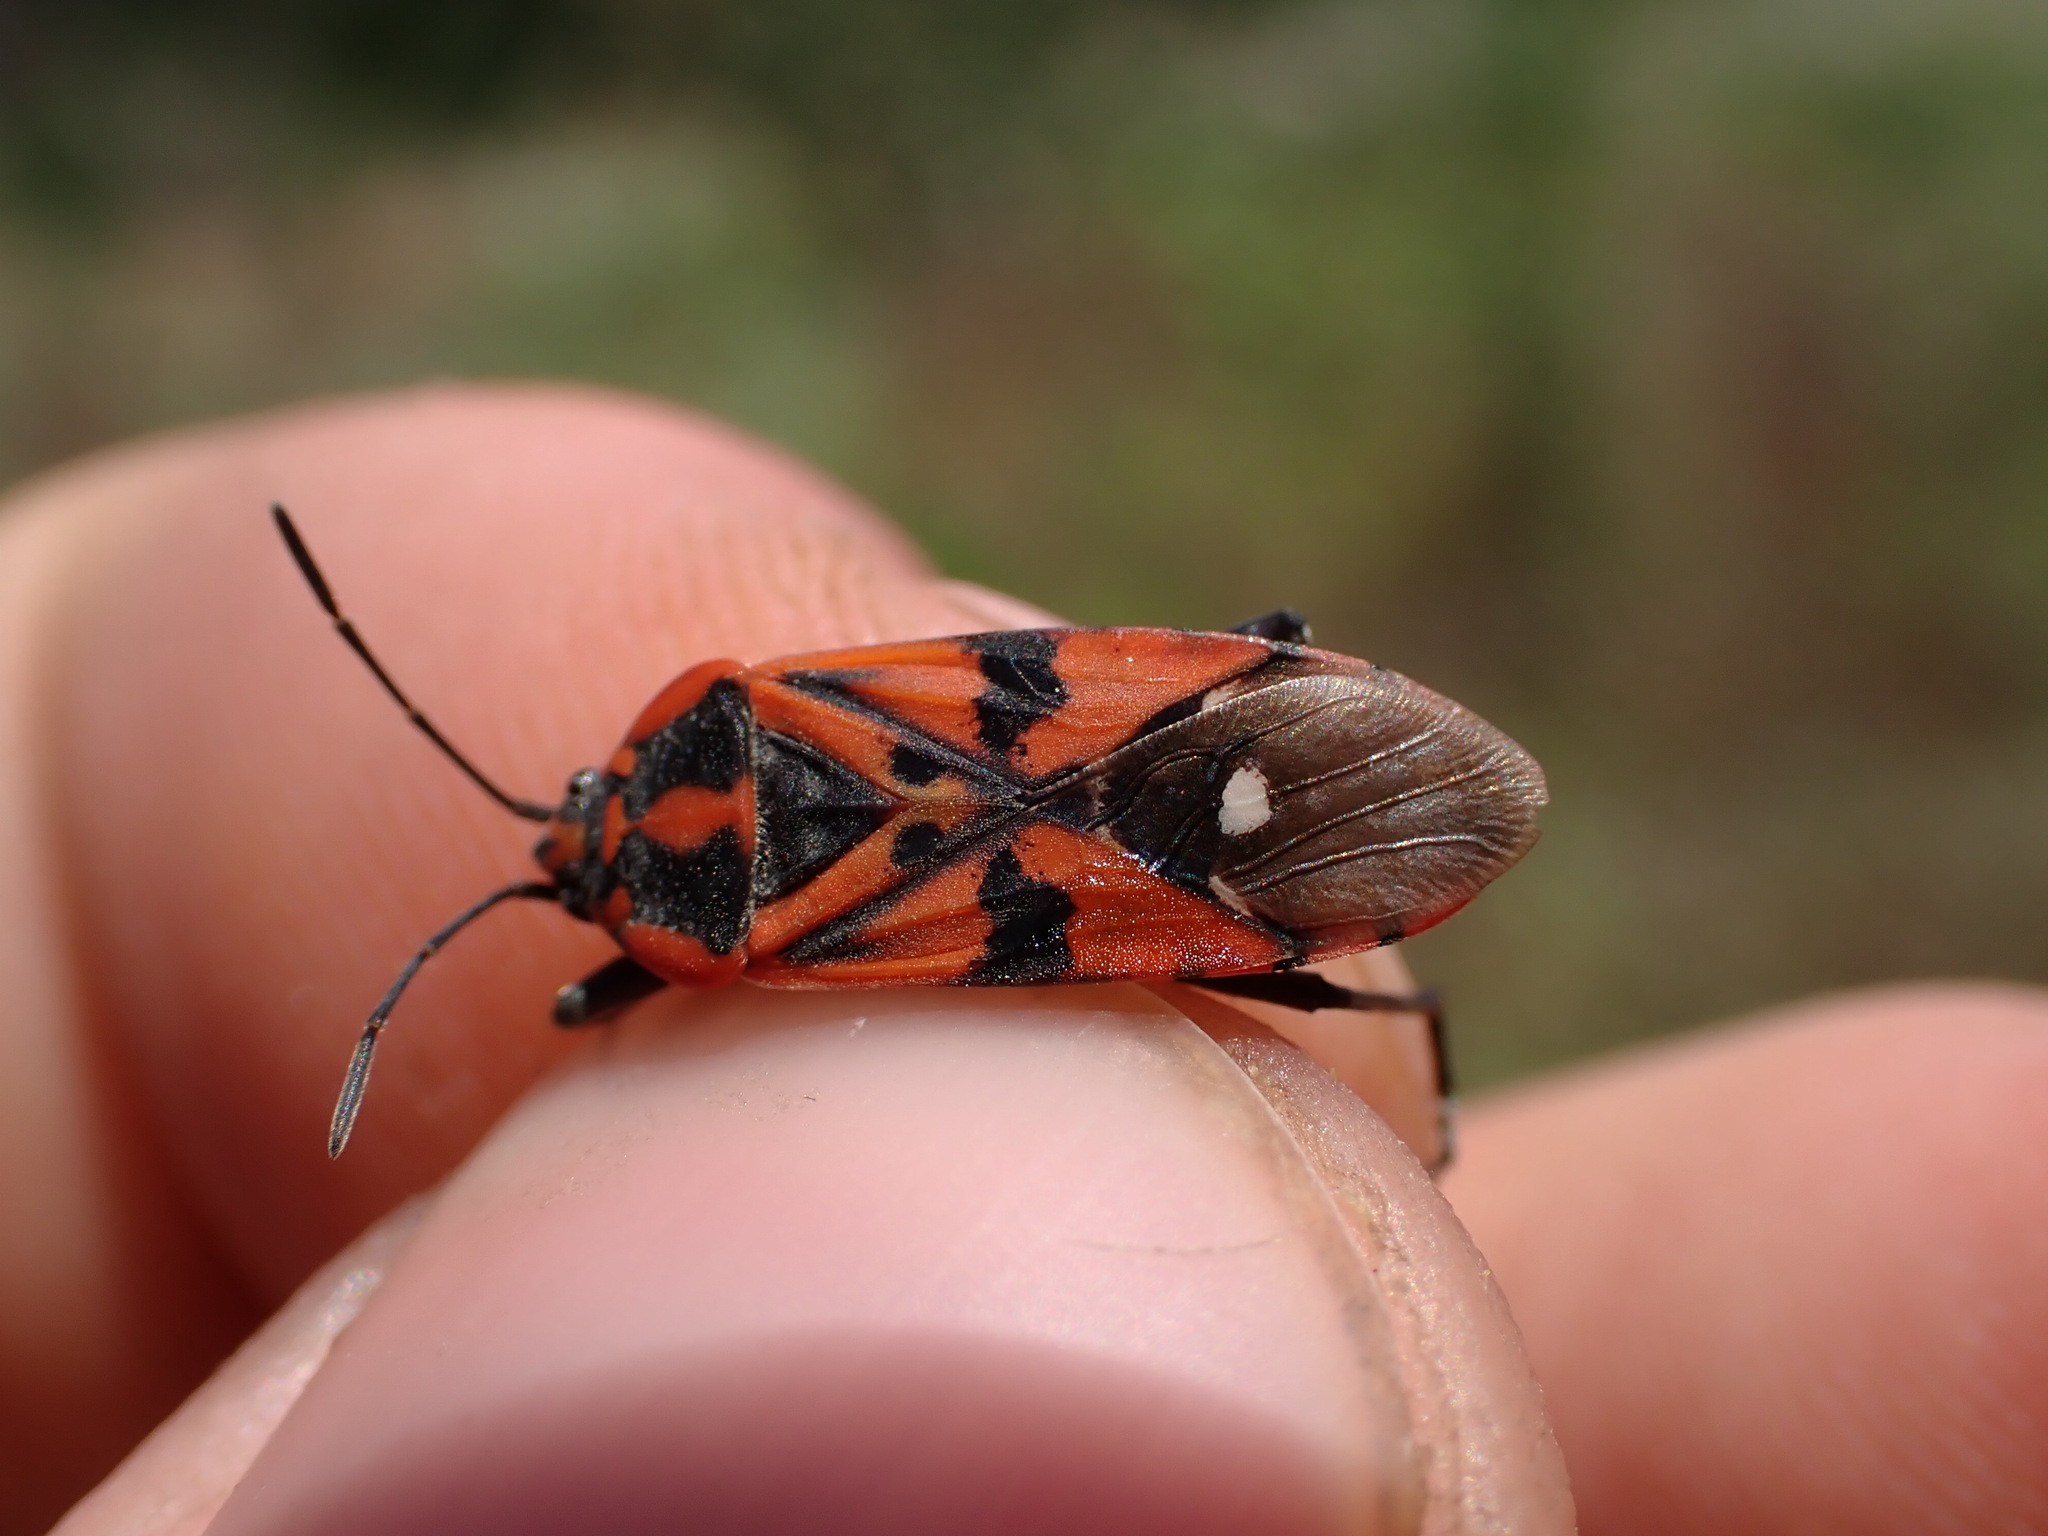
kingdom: Animalia
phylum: Arthropoda
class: Insecta
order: Hemiptera
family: Lygaeidae
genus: Spilostethus
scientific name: Spilostethus pandurus
